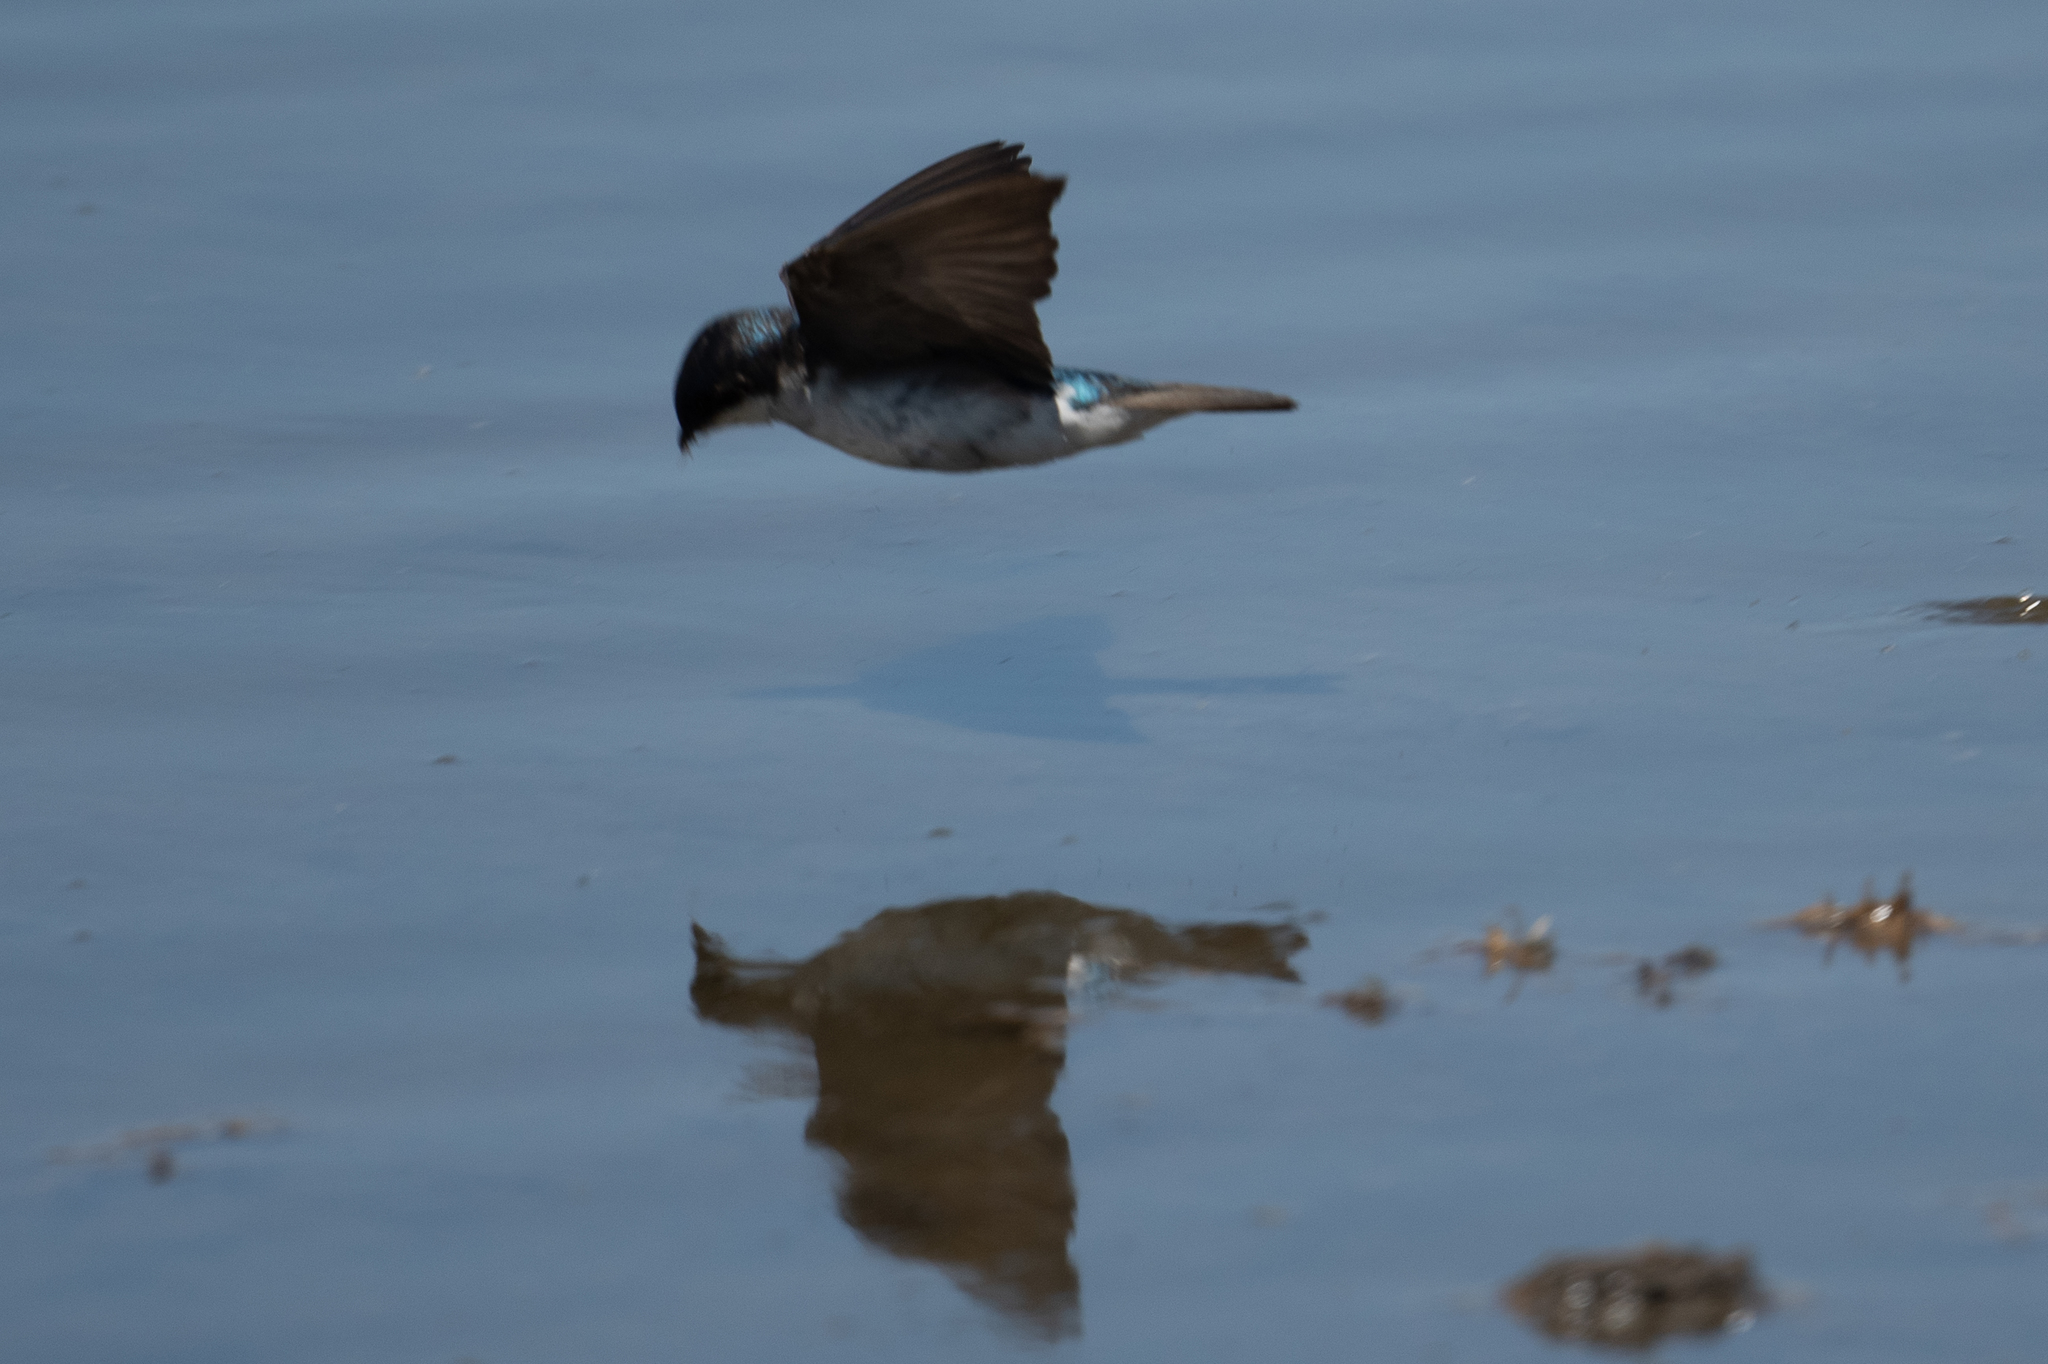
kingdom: Animalia
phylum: Chordata
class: Aves
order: Passeriformes
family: Hirundinidae
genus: Tachycineta
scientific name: Tachycineta bicolor
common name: Tree swallow
